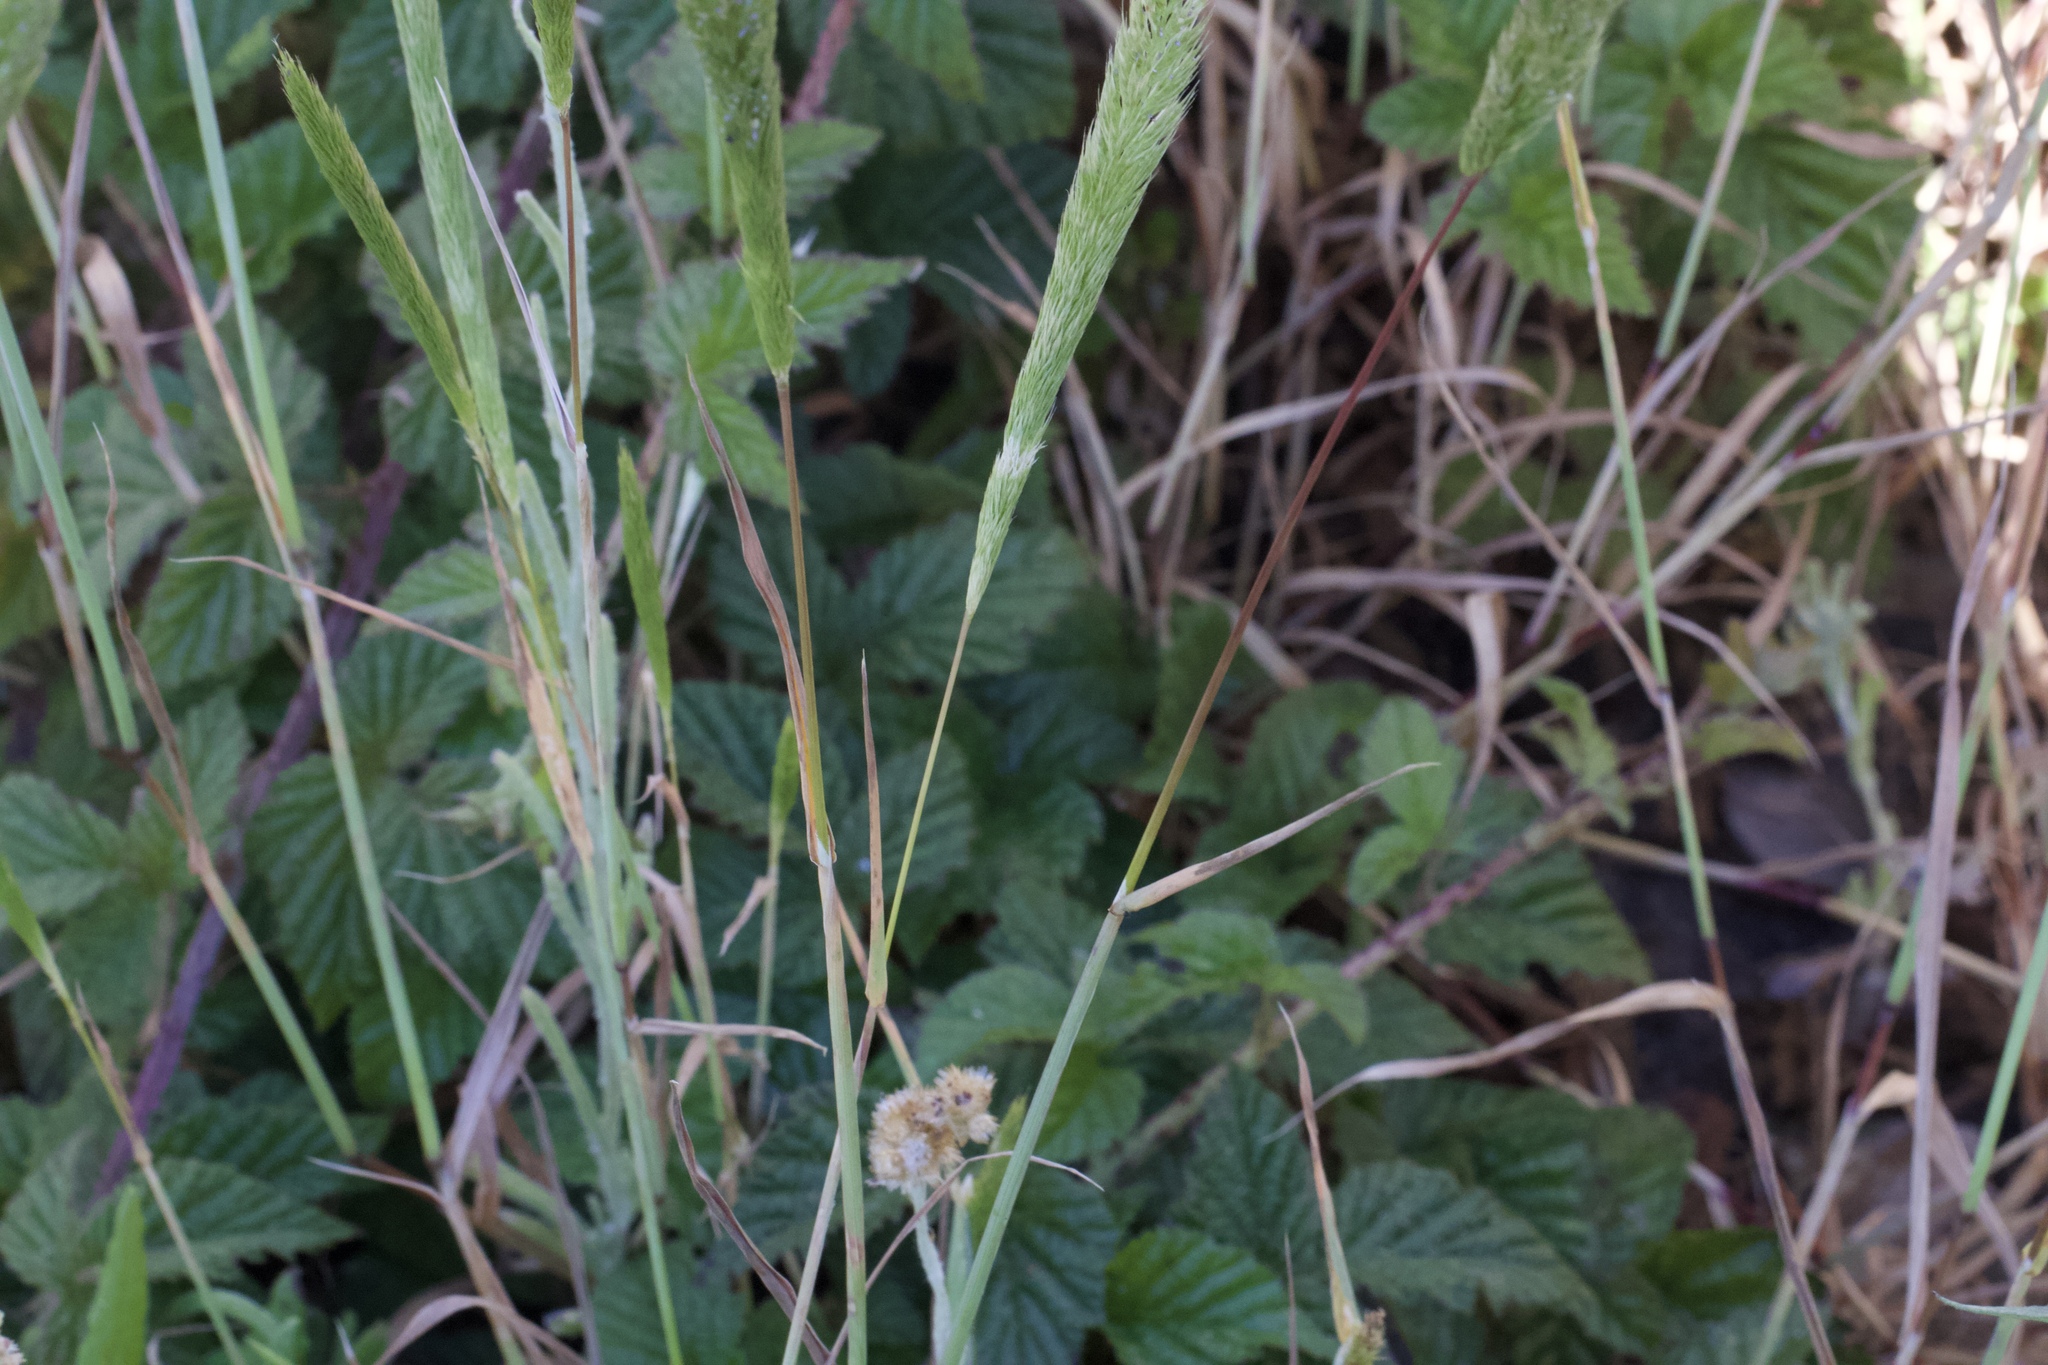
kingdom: Plantae
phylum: Tracheophyta
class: Liliopsida
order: Poales
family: Poaceae
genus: Gastridium
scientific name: Gastridium phleoides
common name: Nit grass
